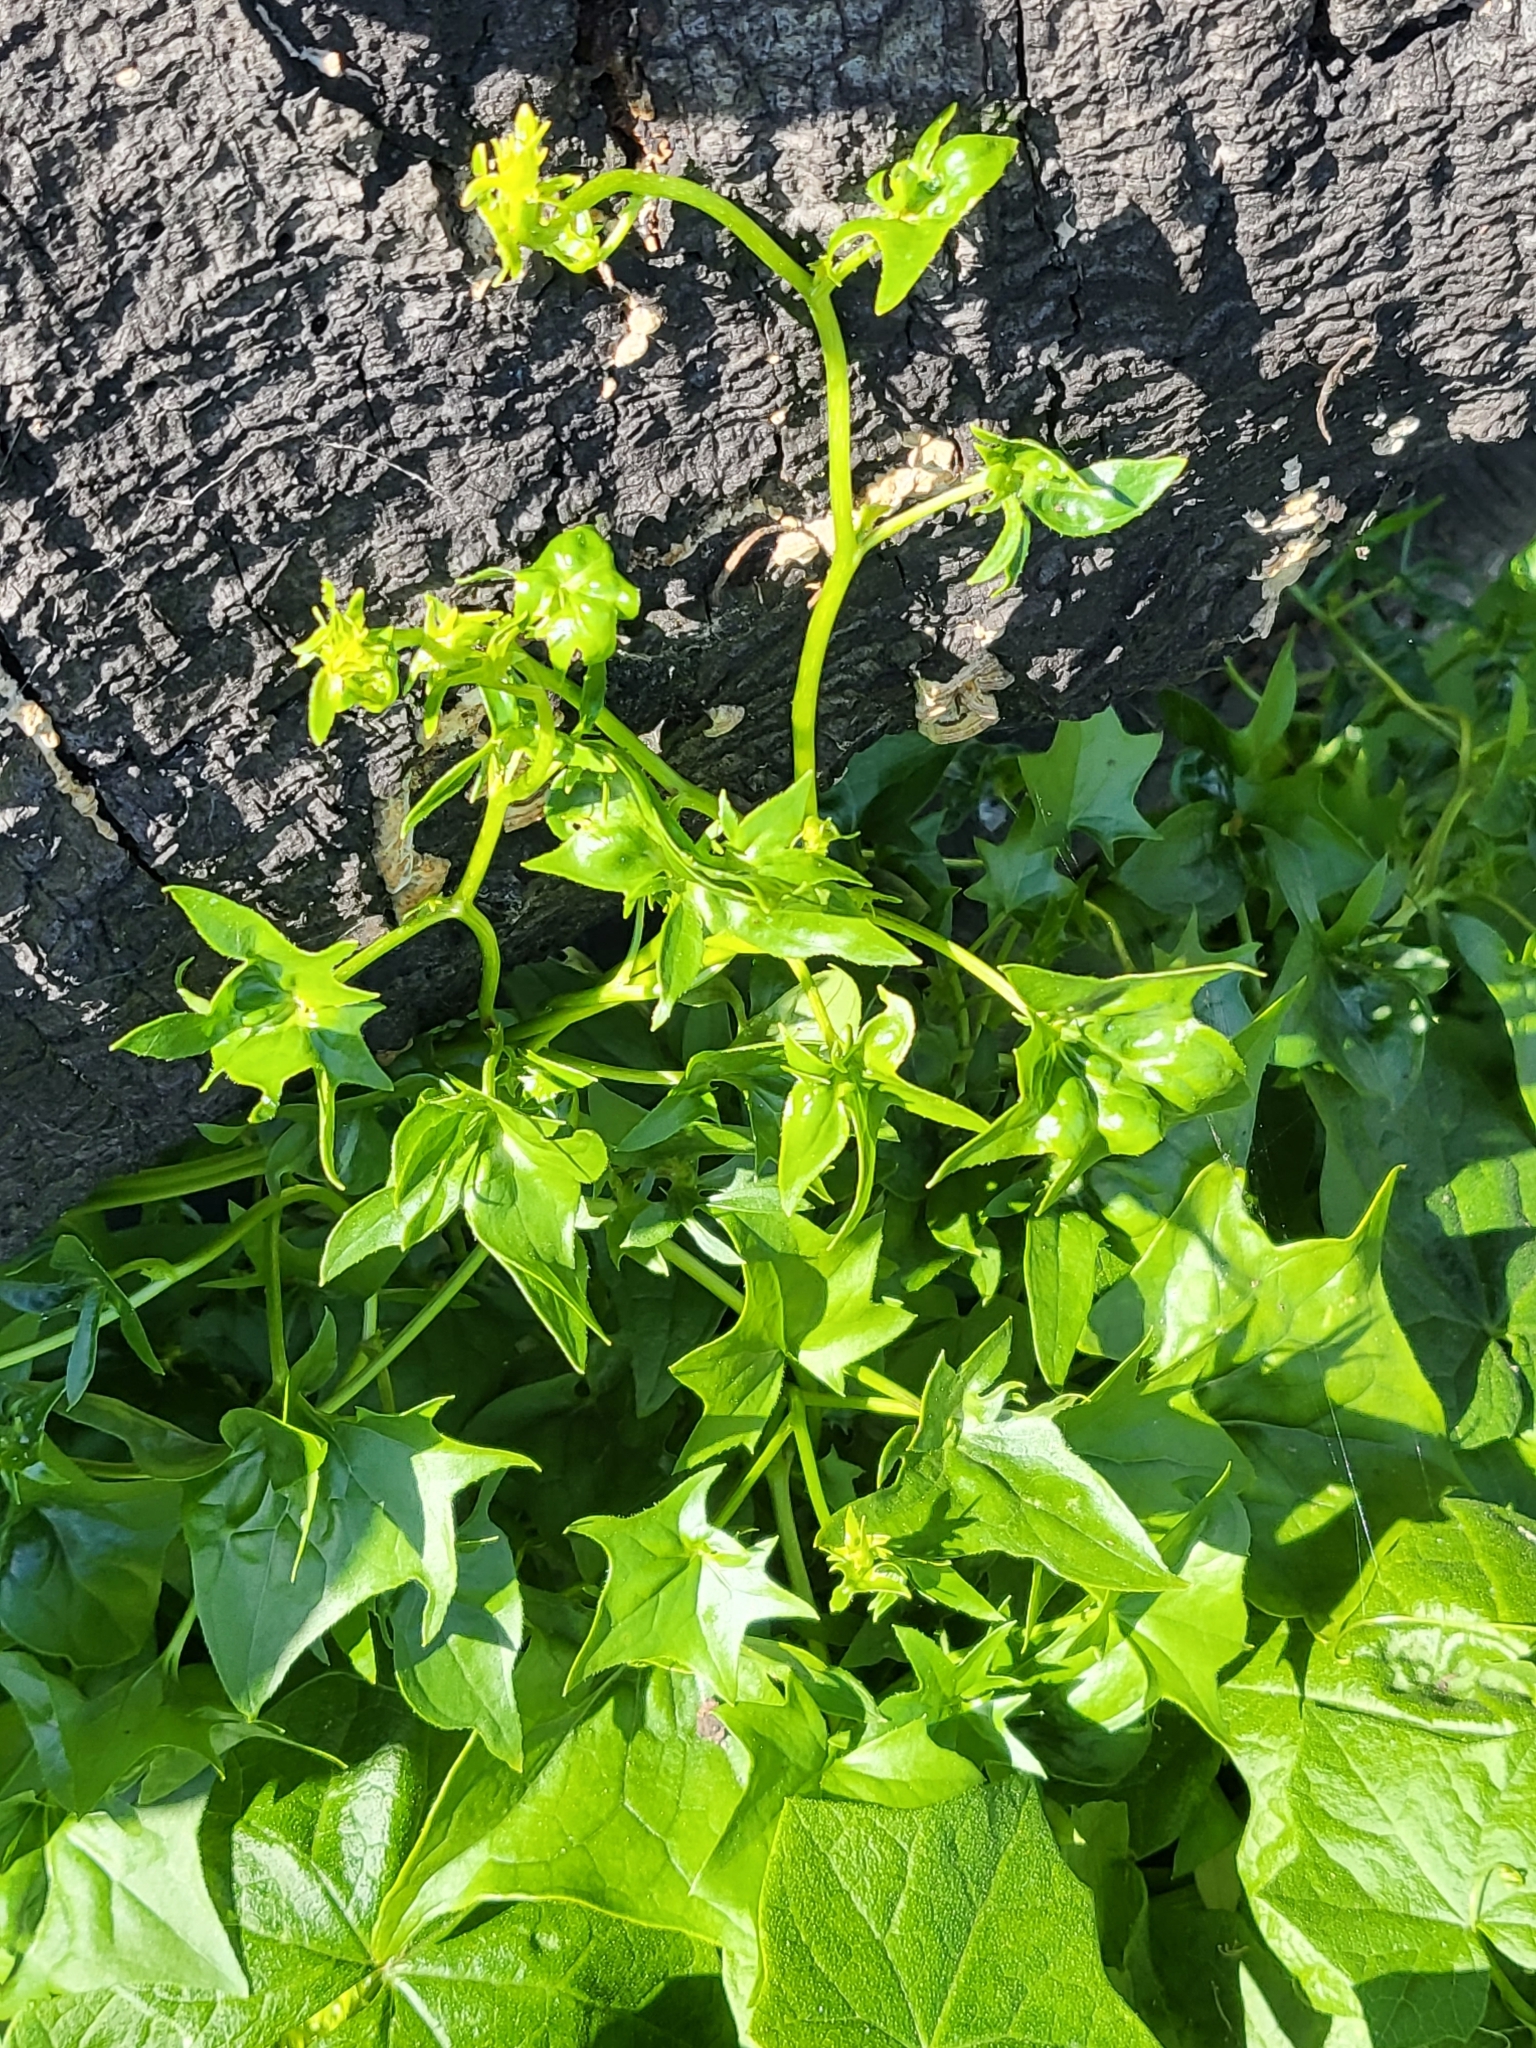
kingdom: Plantae
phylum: Tracheophyta
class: Magnoliopsida
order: Asterales
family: Asteraceae
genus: Delairea
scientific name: Delairea odorata
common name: Cape-ivy
